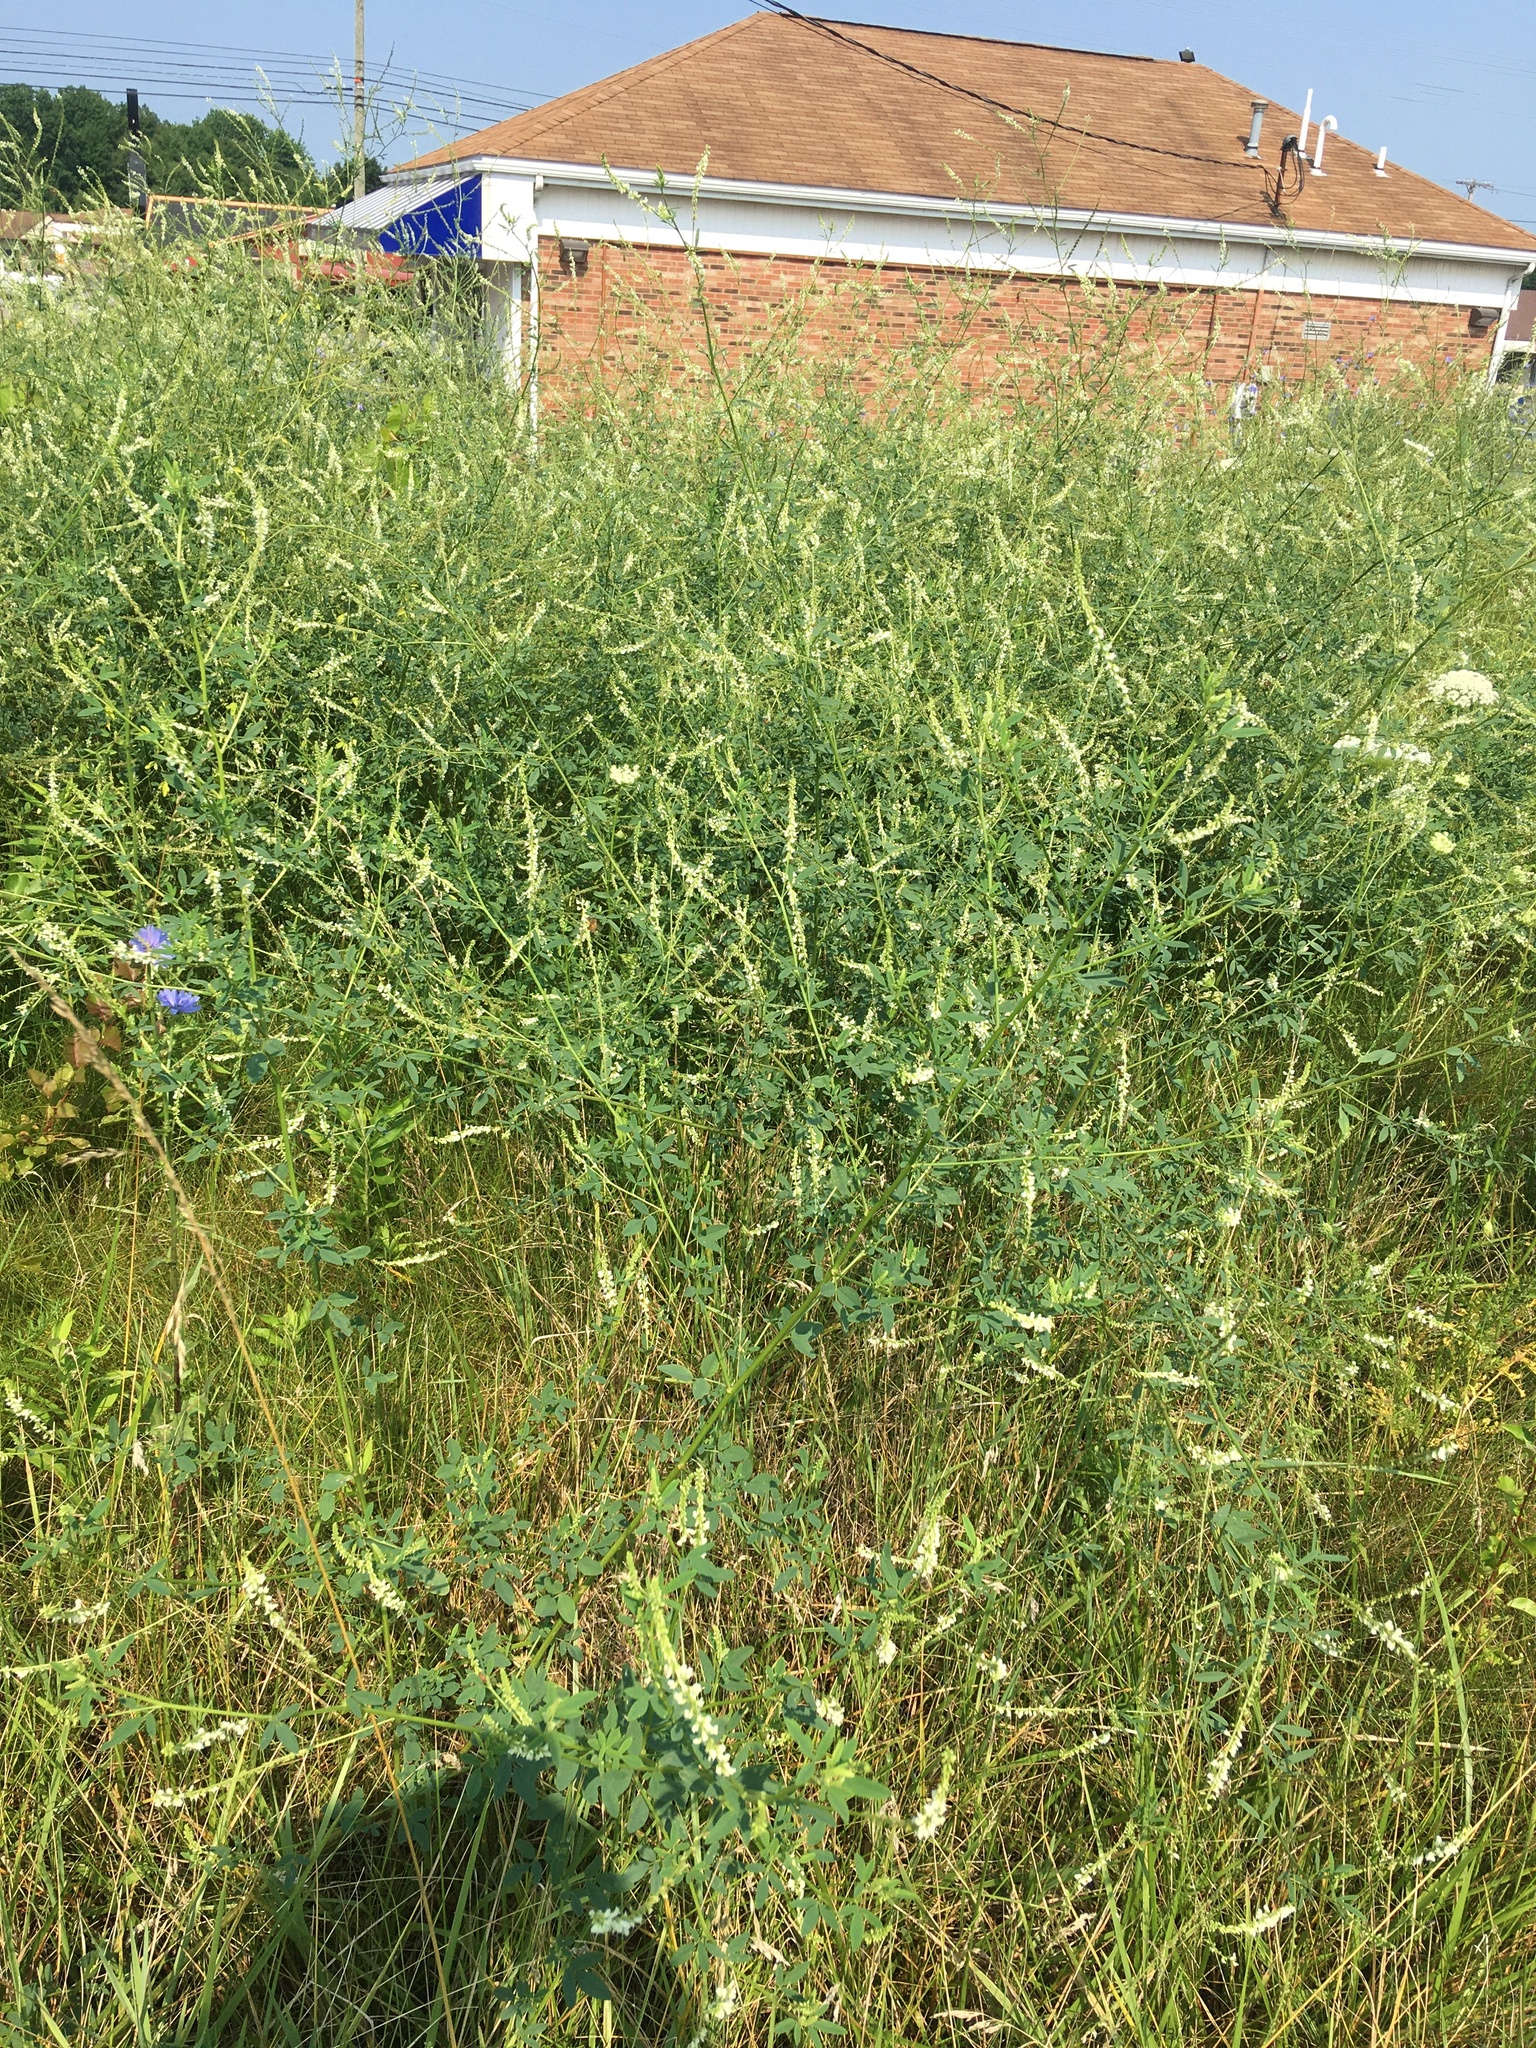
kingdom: Plantae
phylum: Tracheophyta
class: Magnoliopsida
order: Fabales
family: Fabaceae
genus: Melilotus
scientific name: Melilotus albus
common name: White melilot
